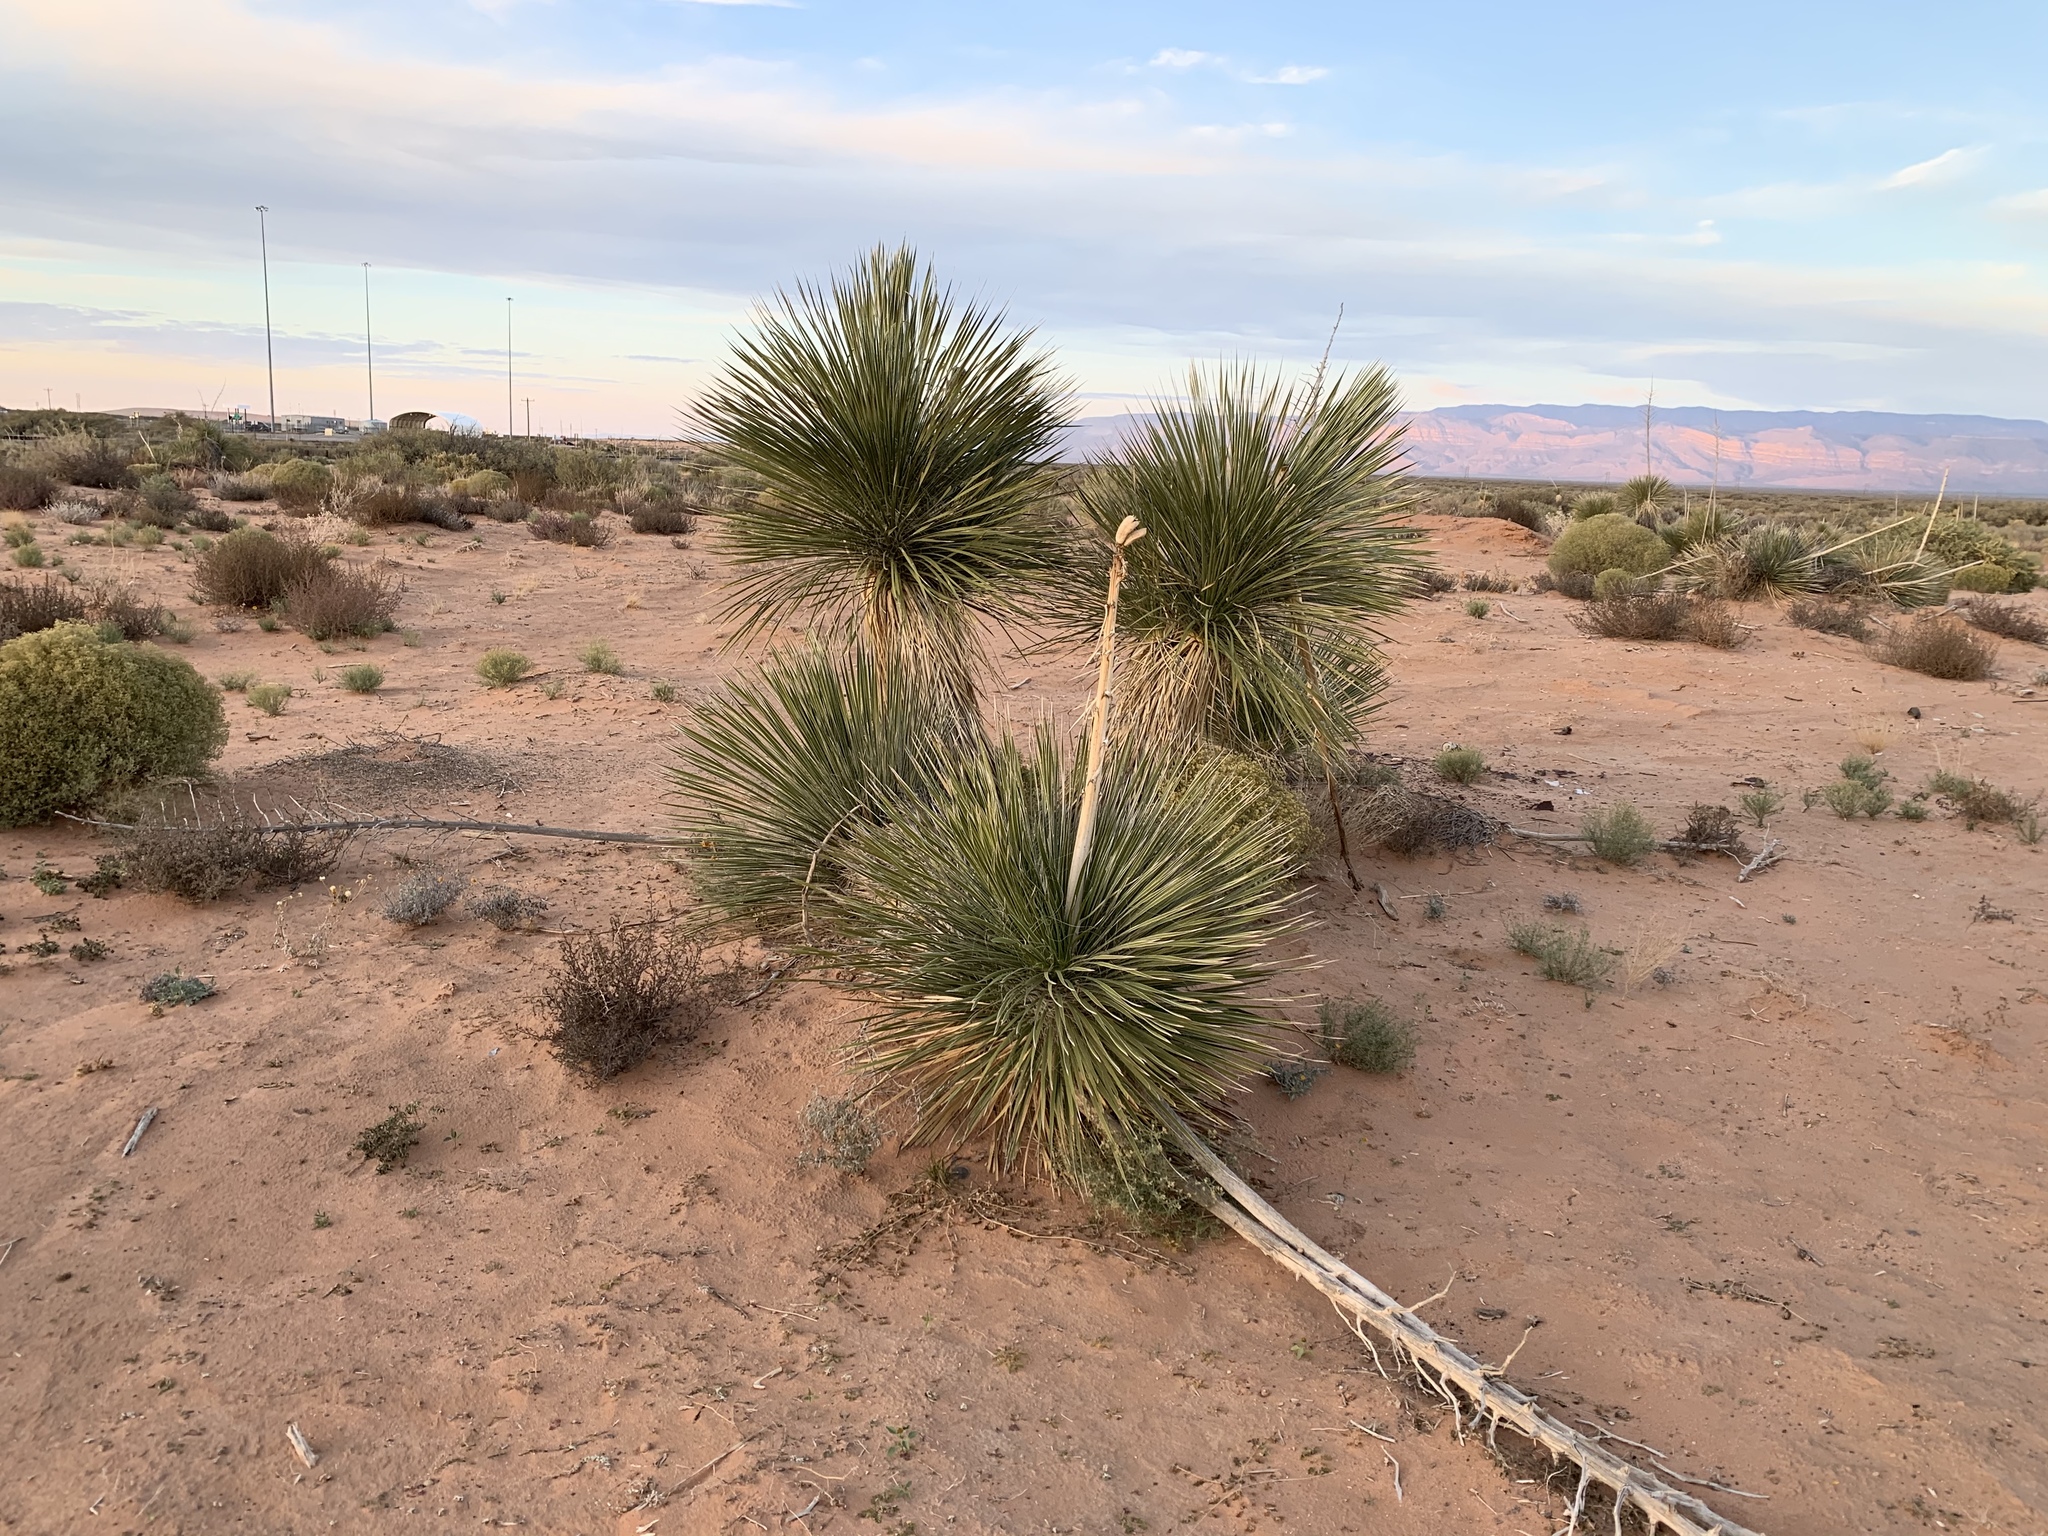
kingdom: Plantae
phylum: Tracheophyta
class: Liliopsida
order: Asparagales
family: Asparagaceae
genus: Yucca
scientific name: Yucca elata
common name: Palmella
